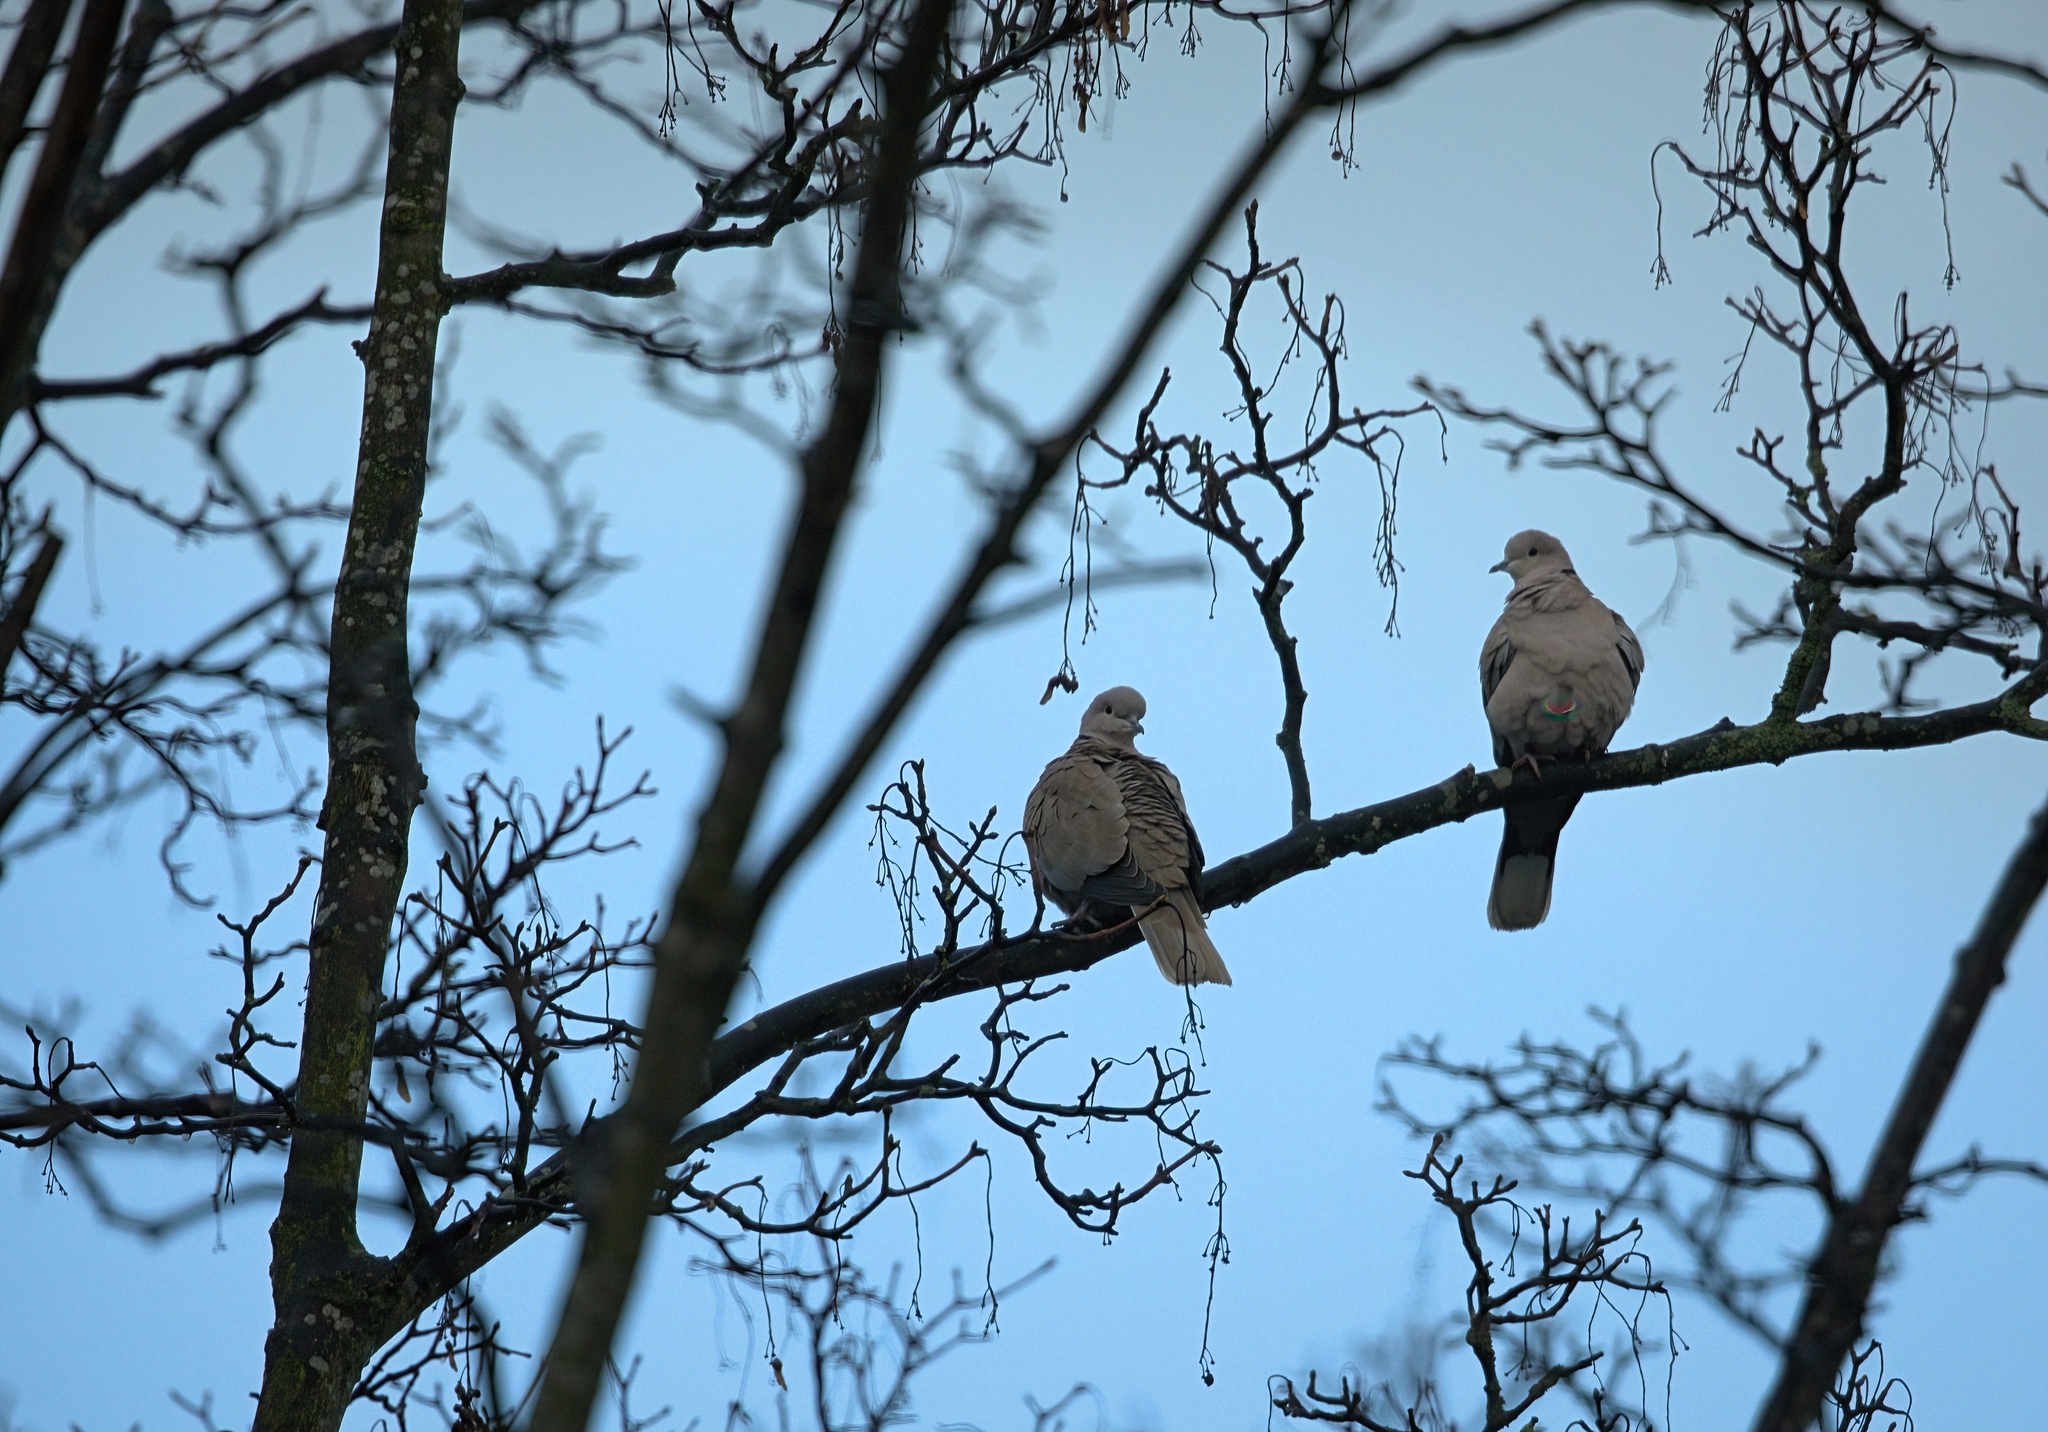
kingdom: Animalia
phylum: Chordata
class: Aves
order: Columbiformes
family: Columbidae
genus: Streptopelia
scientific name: Streptopelia decaocto
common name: Eurasian collared dove
